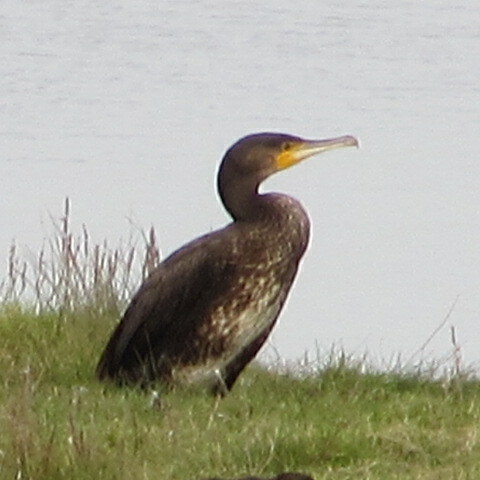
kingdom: Animalia
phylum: Chordata
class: Aves
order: Suliformes
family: Phalacrocoracidae
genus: Phalacrocorax
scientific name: Phalacrocorax carbo
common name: Great cormorant
